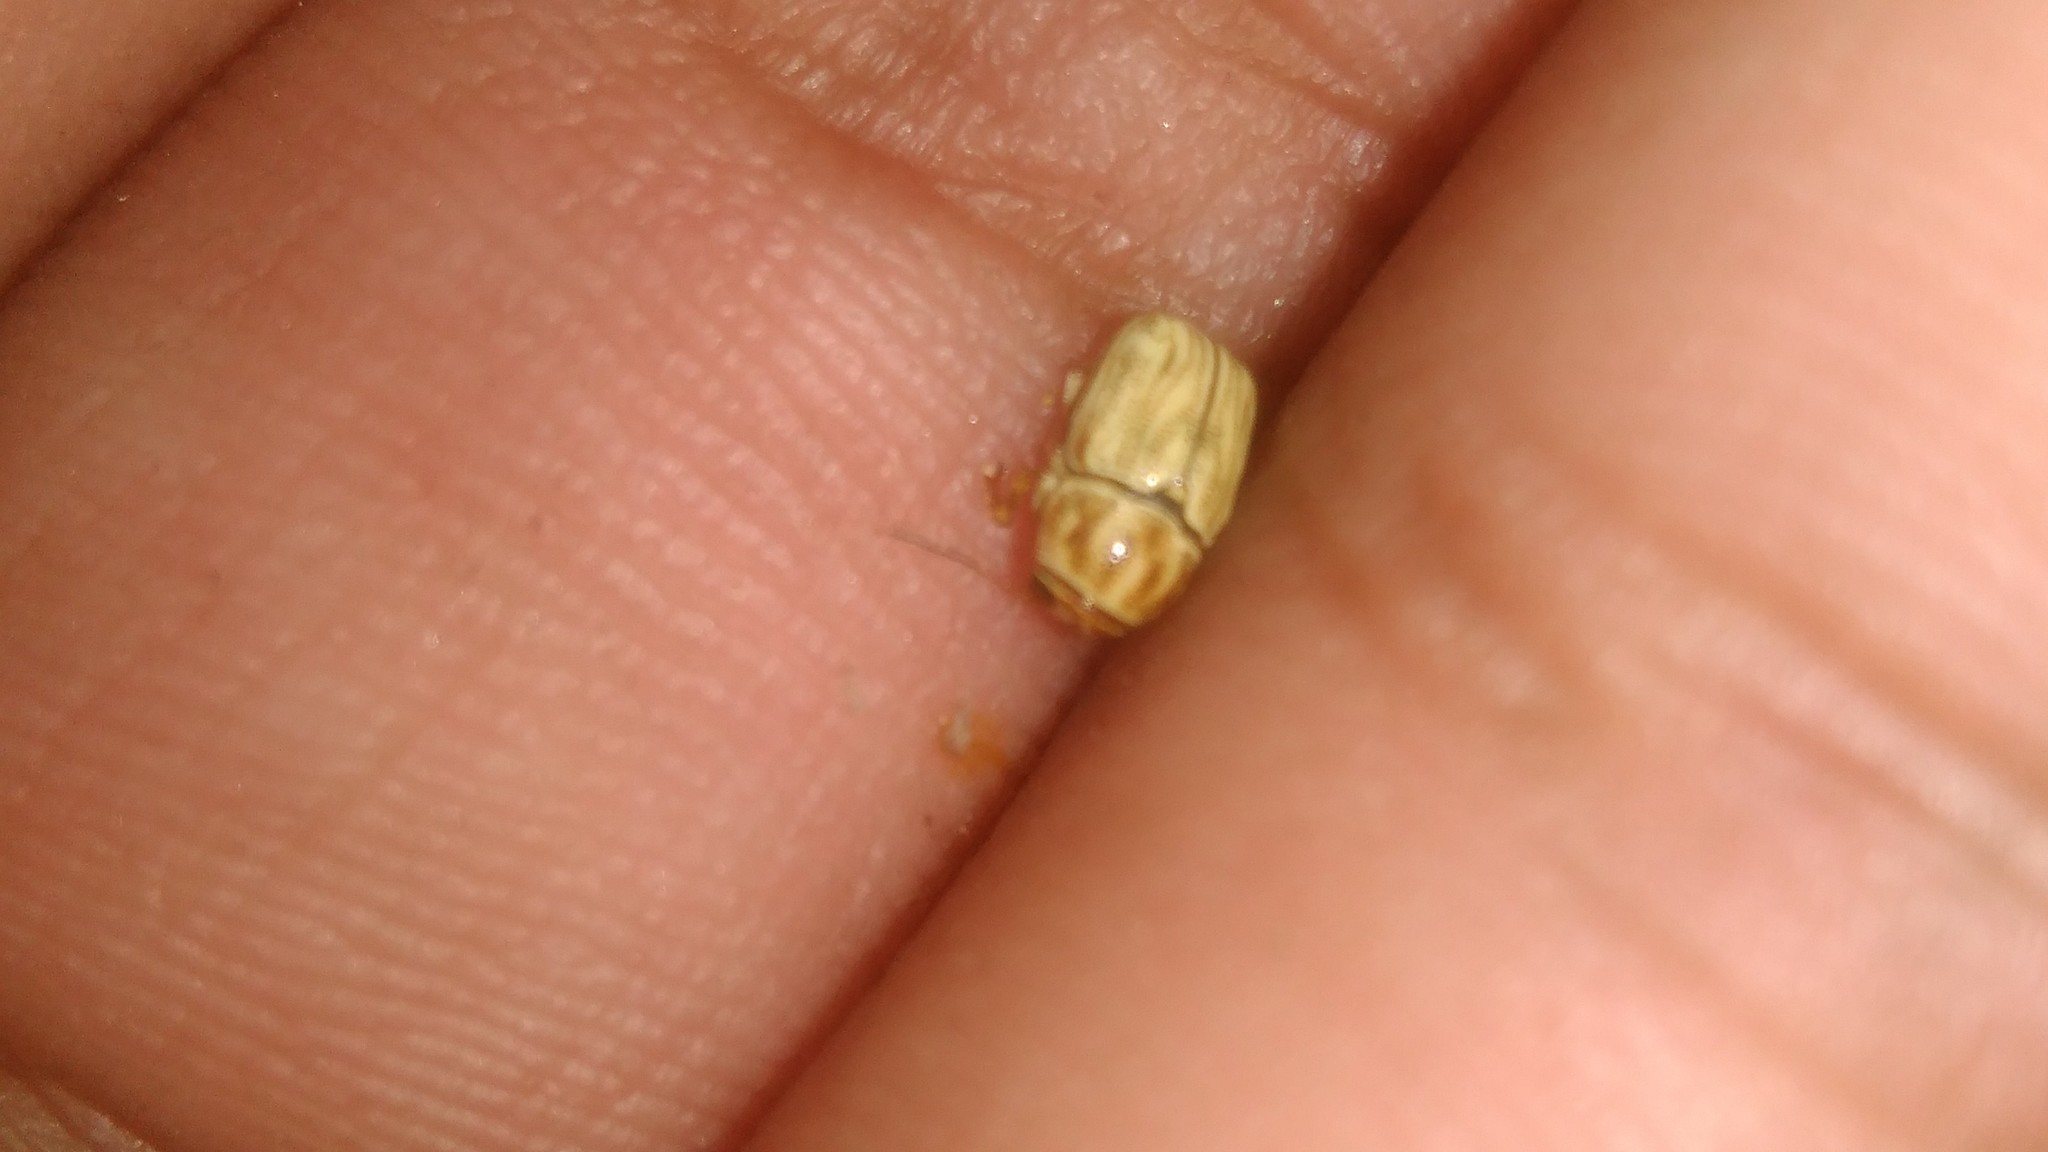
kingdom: Animalia
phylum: Arthropoda
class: Insecta
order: Coleoptera
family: Chrysomelidae
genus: Pachybrachis
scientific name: Pachybrachis
